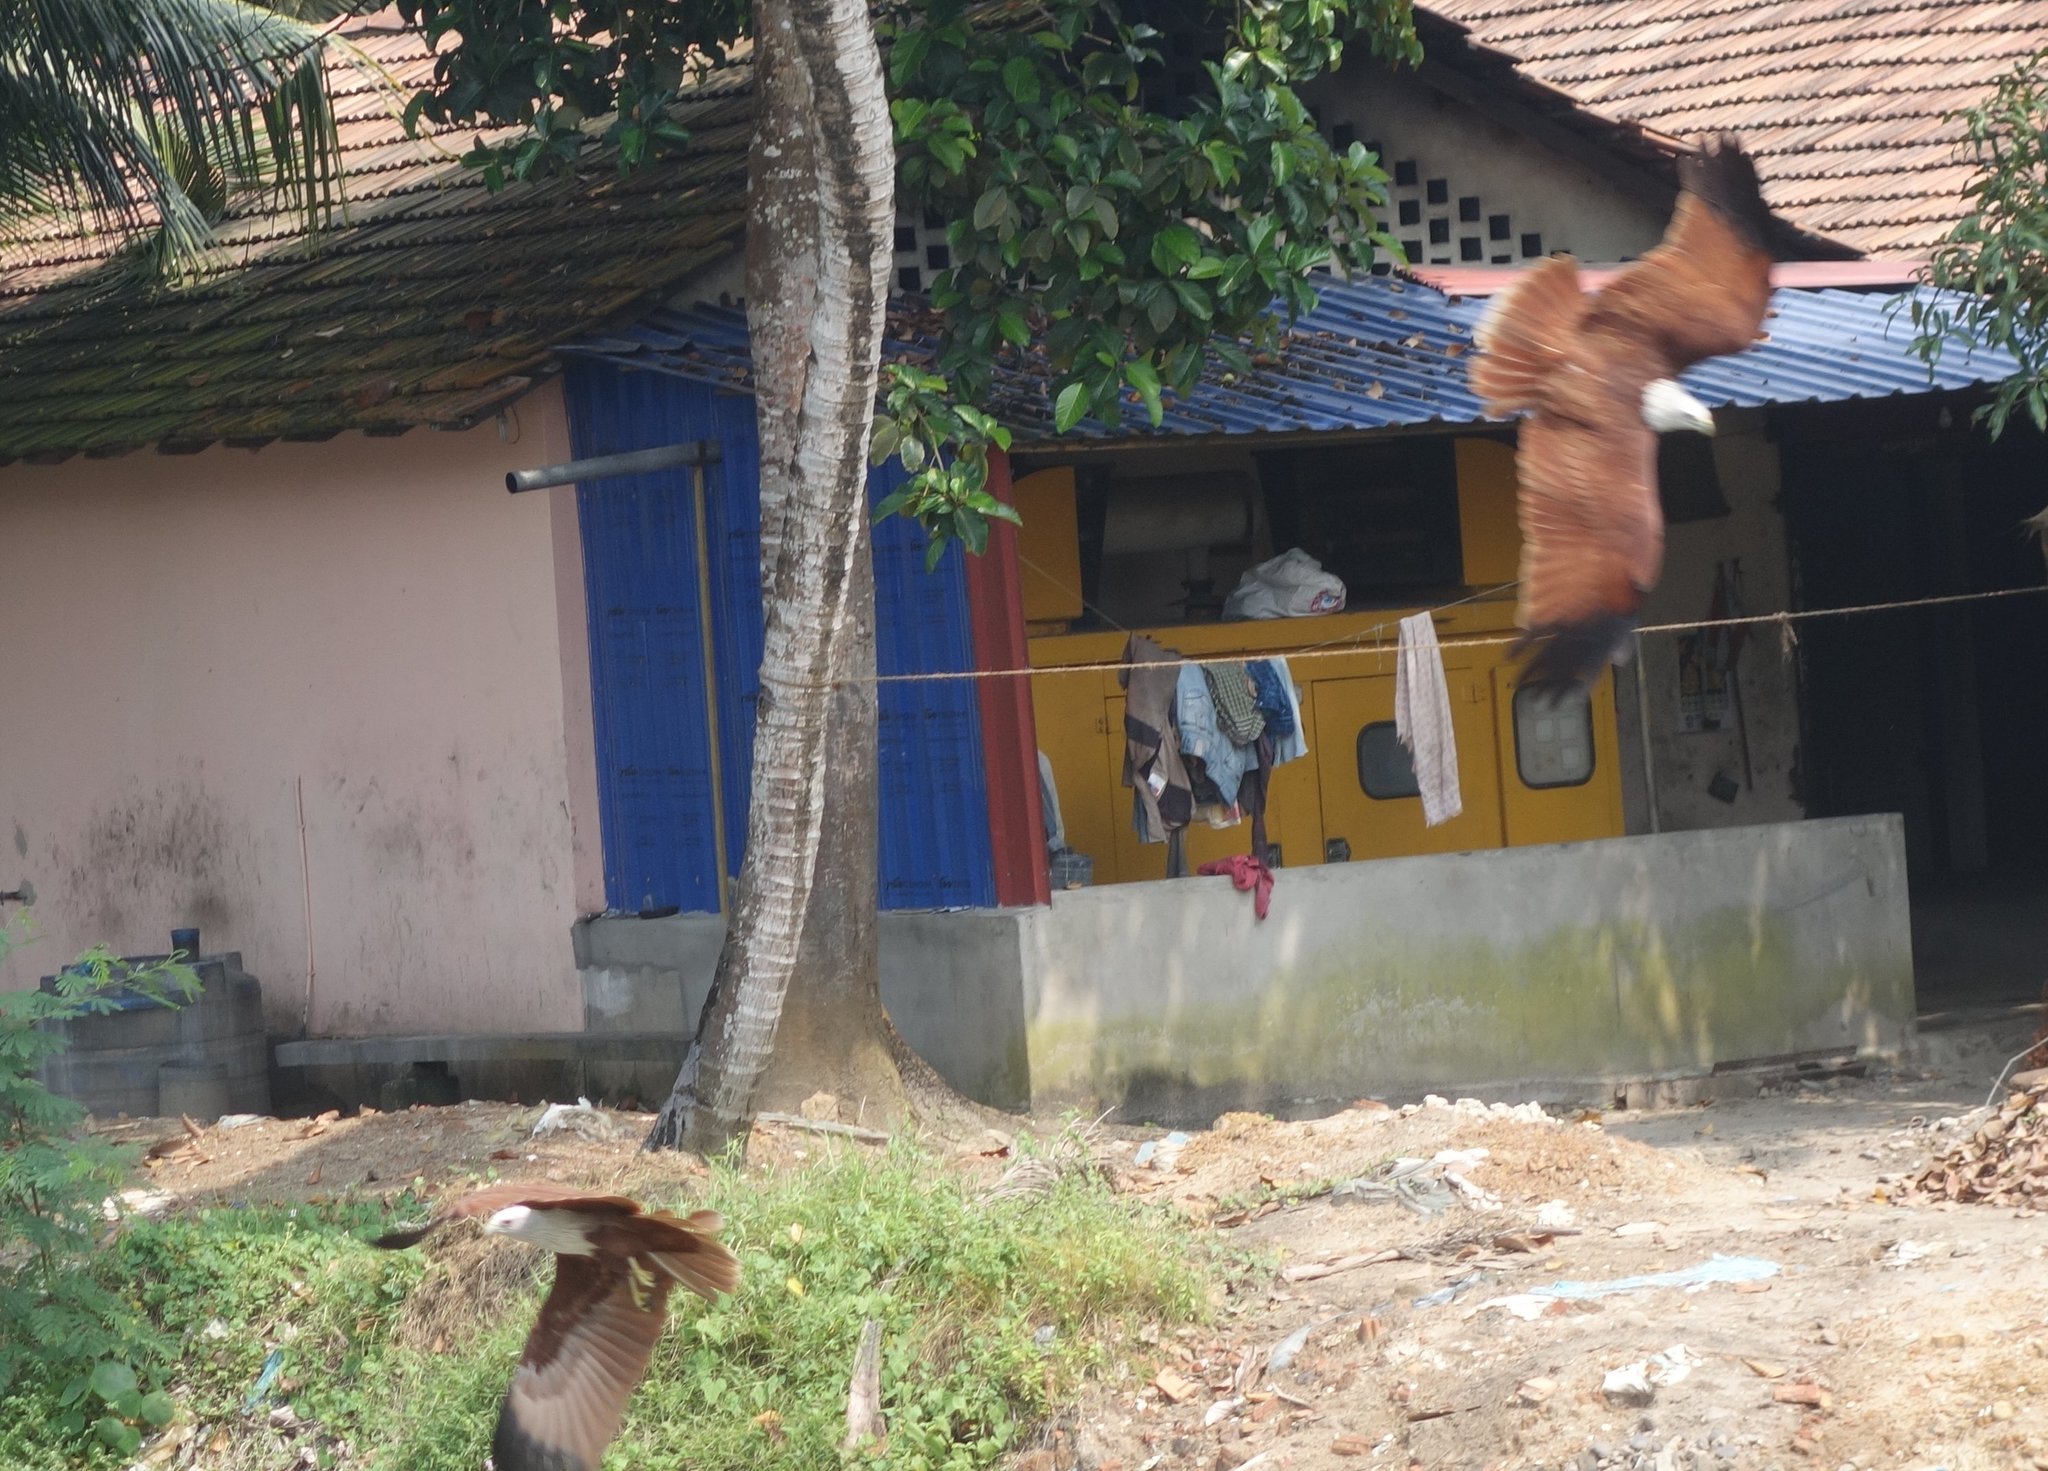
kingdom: Animalia
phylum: Chordata
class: Aves
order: Accipitriformes
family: Accipitridae
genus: Haliastur
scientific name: Haliastur indus
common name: Brahminy kite
